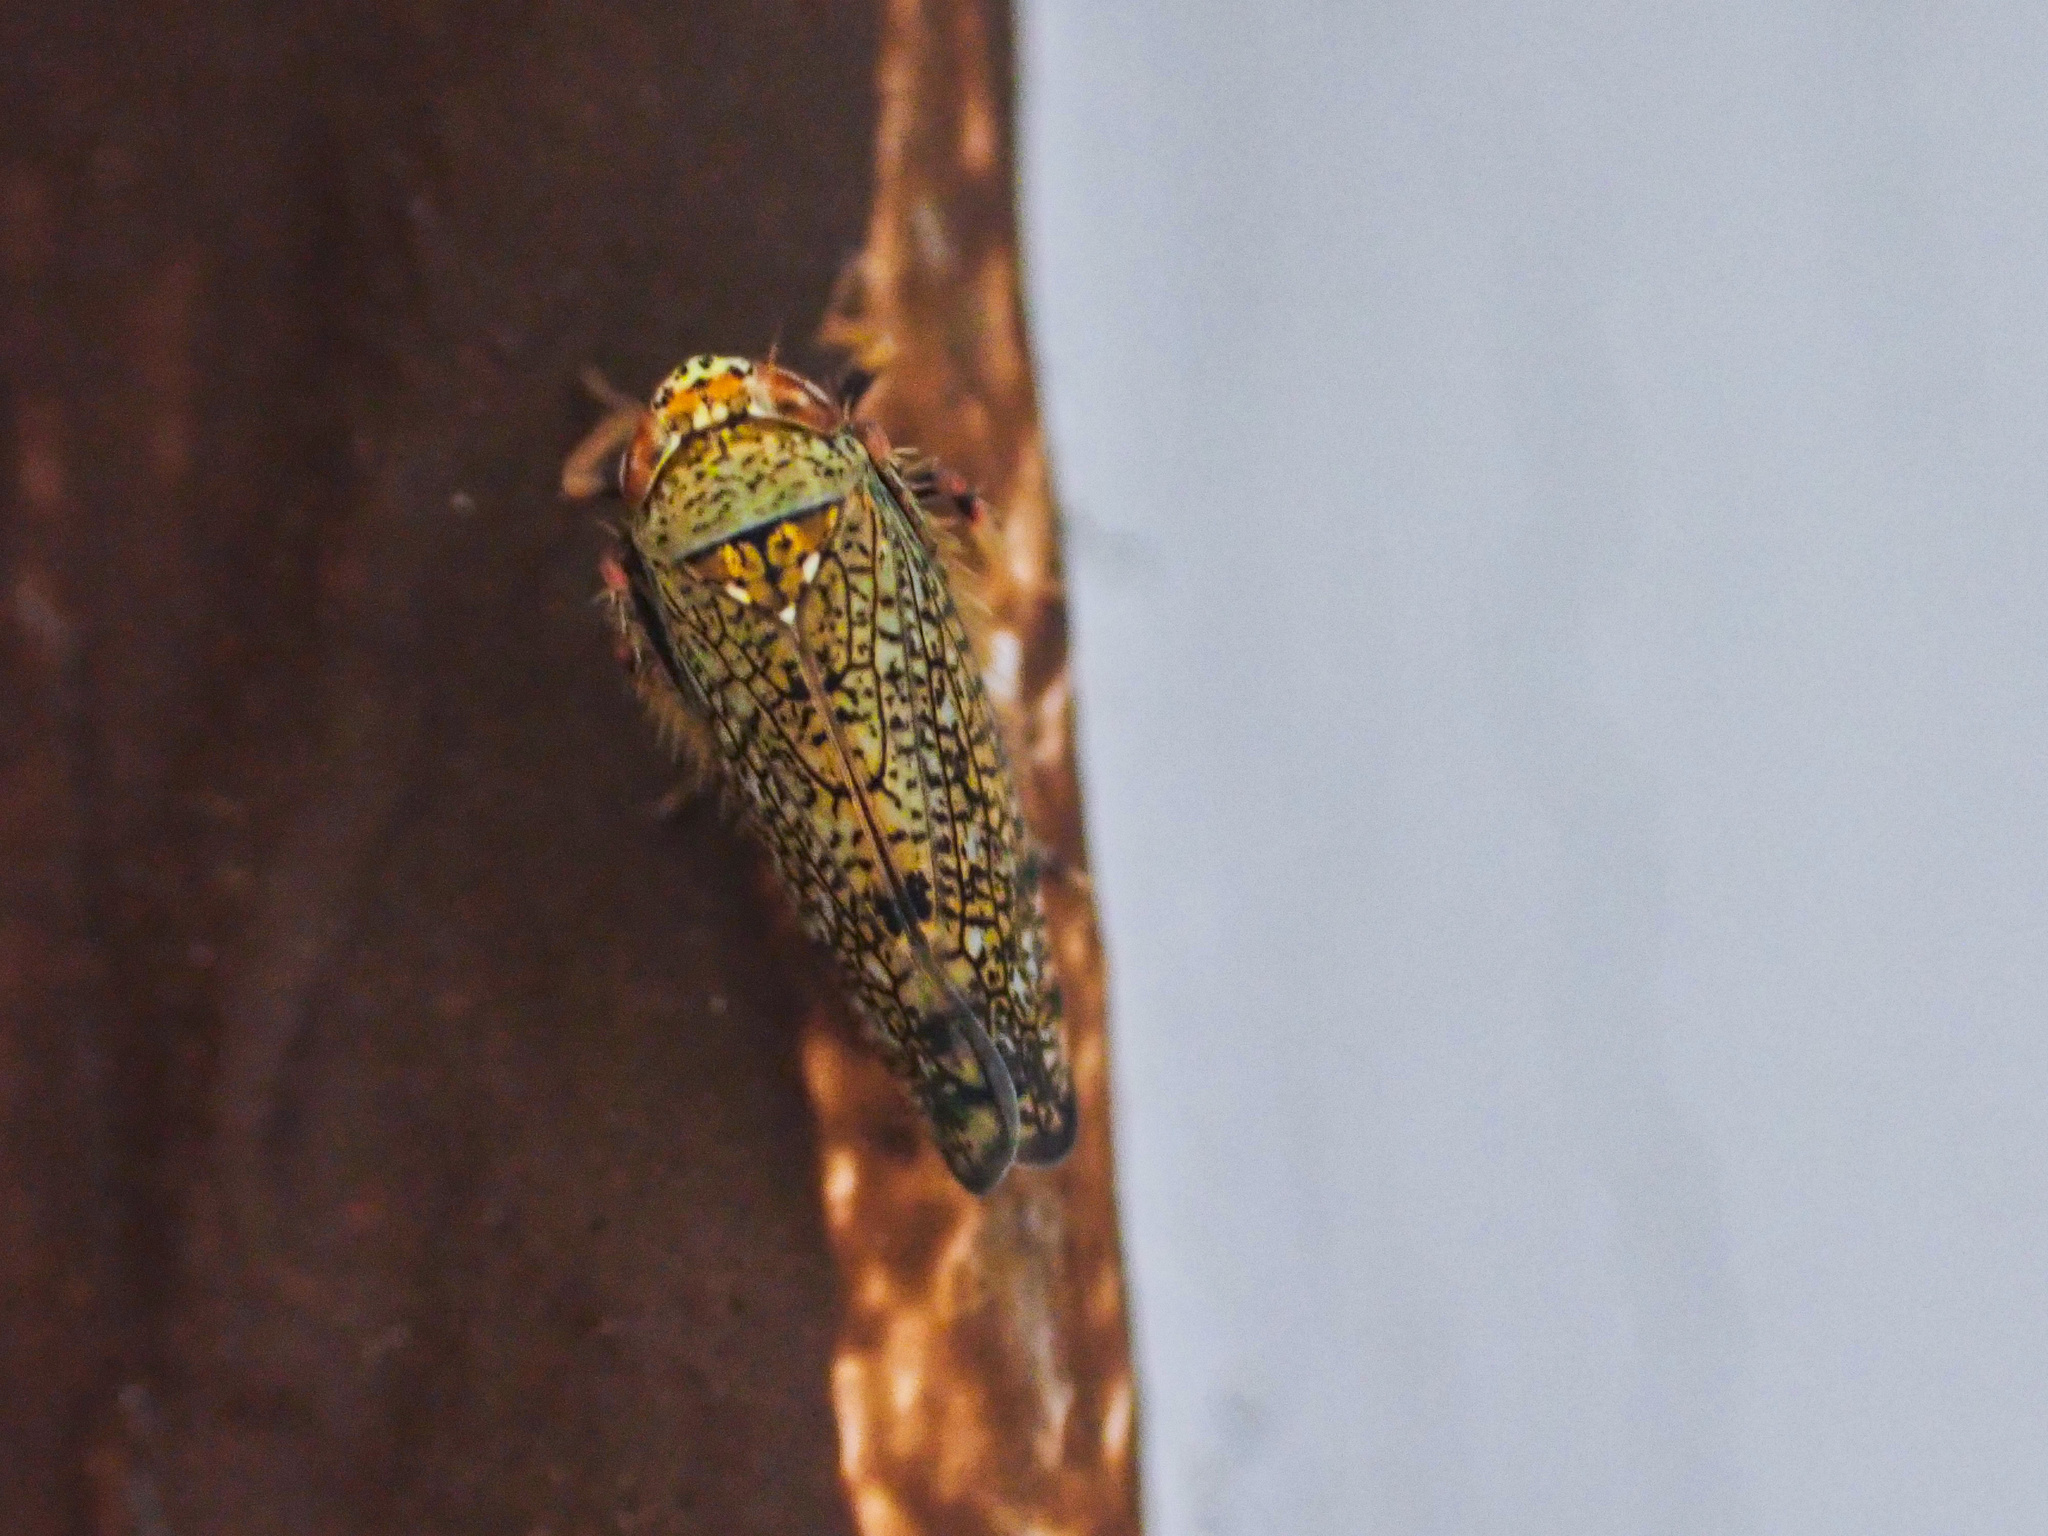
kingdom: Animalia
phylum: Arthropoda
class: Insecta
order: Hemiptera
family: Cicadellidae
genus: Orientus
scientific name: Orientus ishidae
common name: Japanese leafhopper
